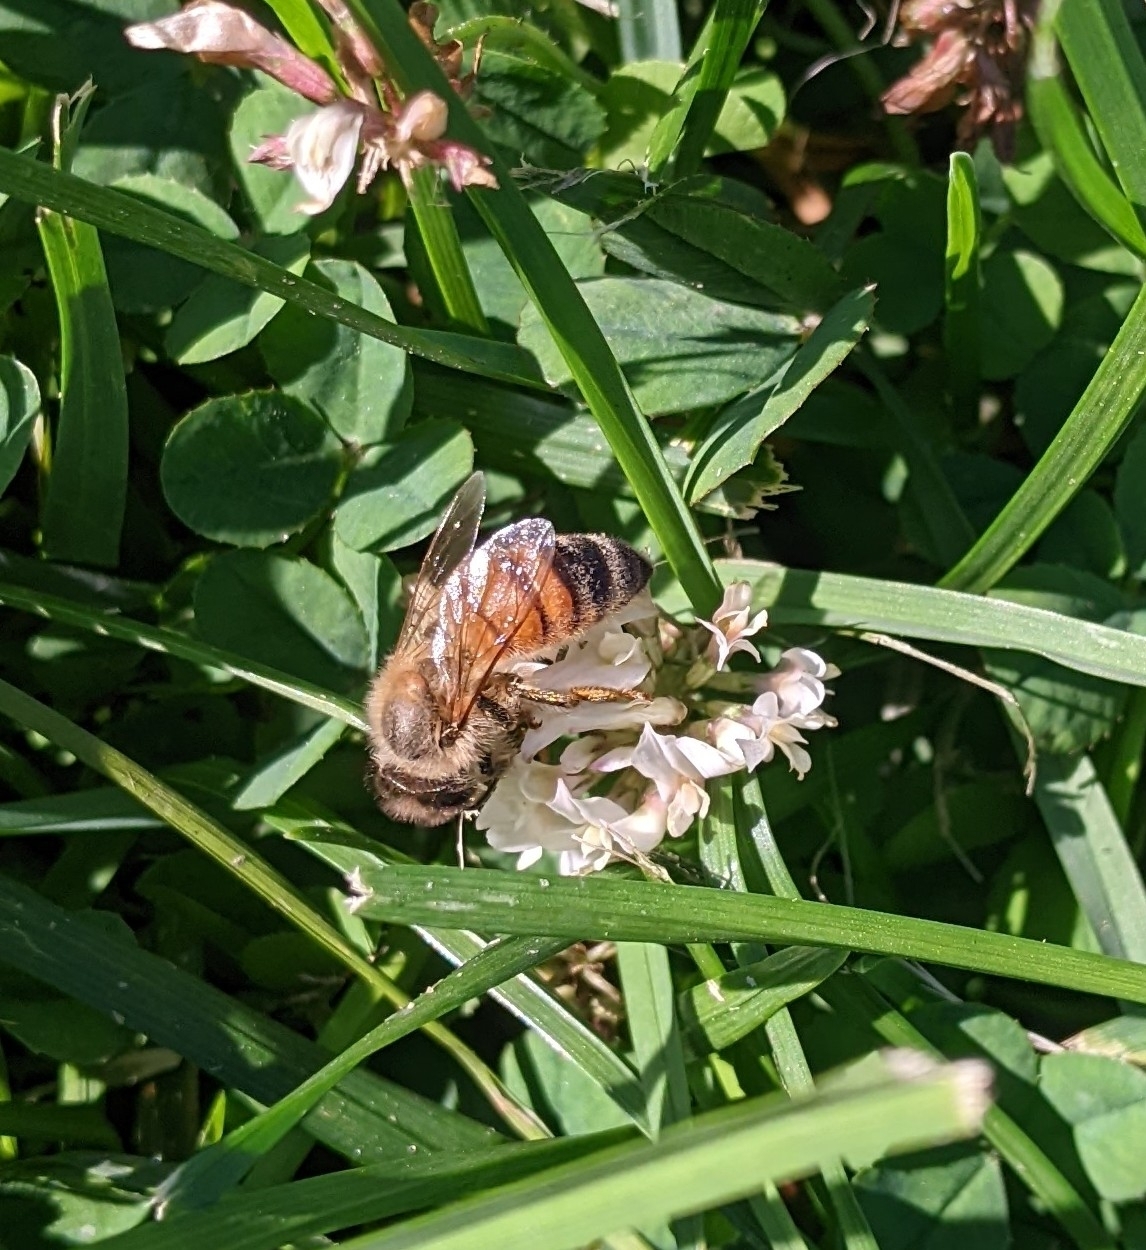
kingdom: Animalia
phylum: Arthropoda
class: Insecta
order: Hymenoptera
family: Apidae
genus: Apis
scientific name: Apis mellifera
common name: Honey bee
